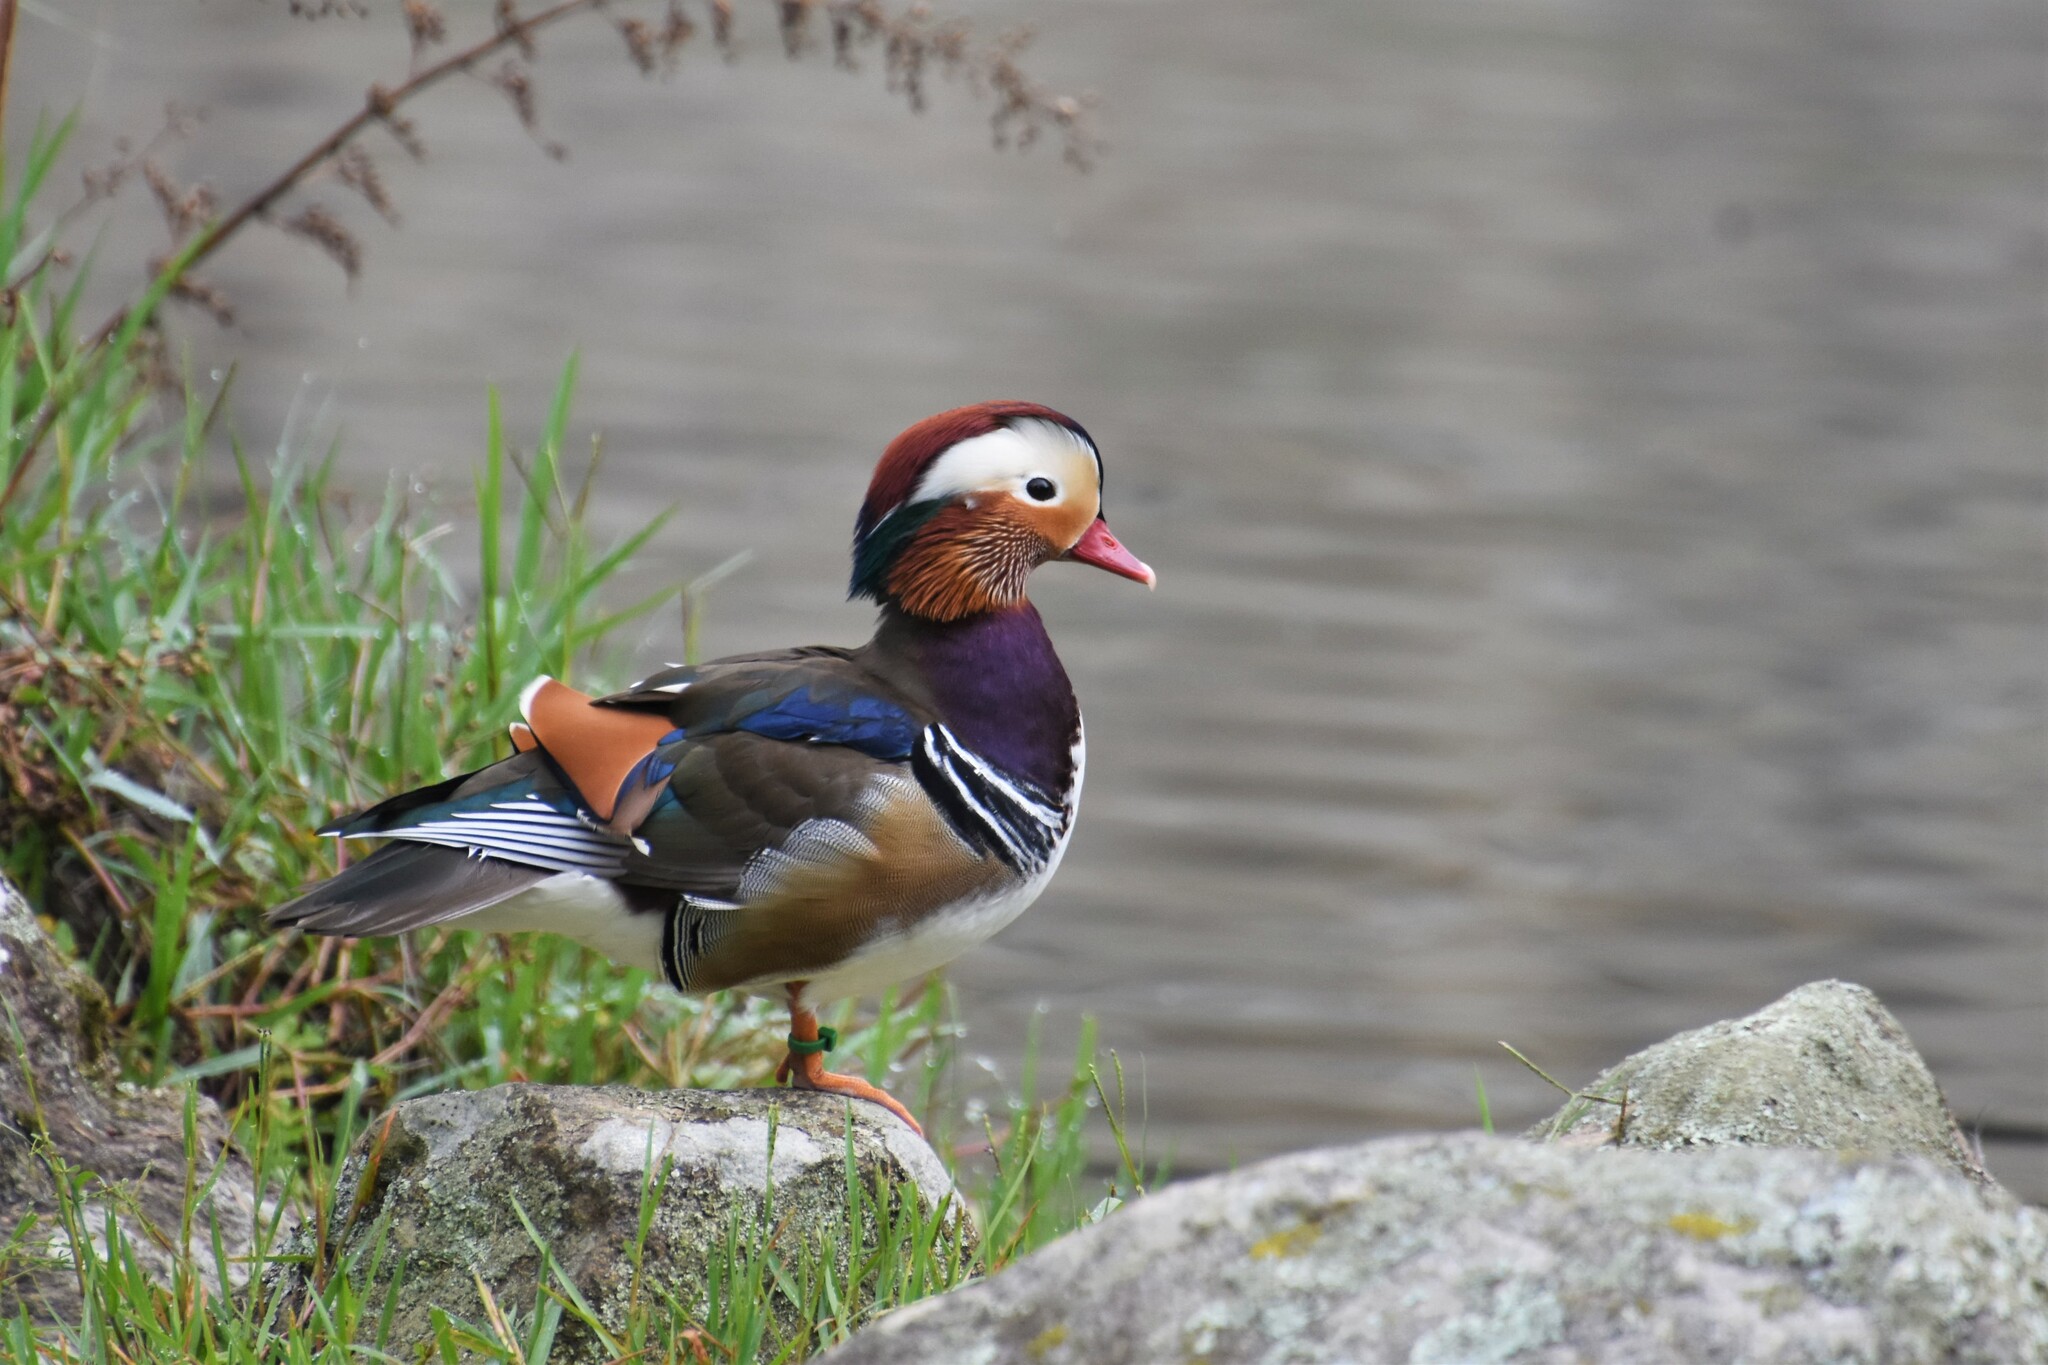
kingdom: Animalia
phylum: Chordata
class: Aves
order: Anseriformes
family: Anatidae
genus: Aix
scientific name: Aix galericulata
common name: Mandarin duck
